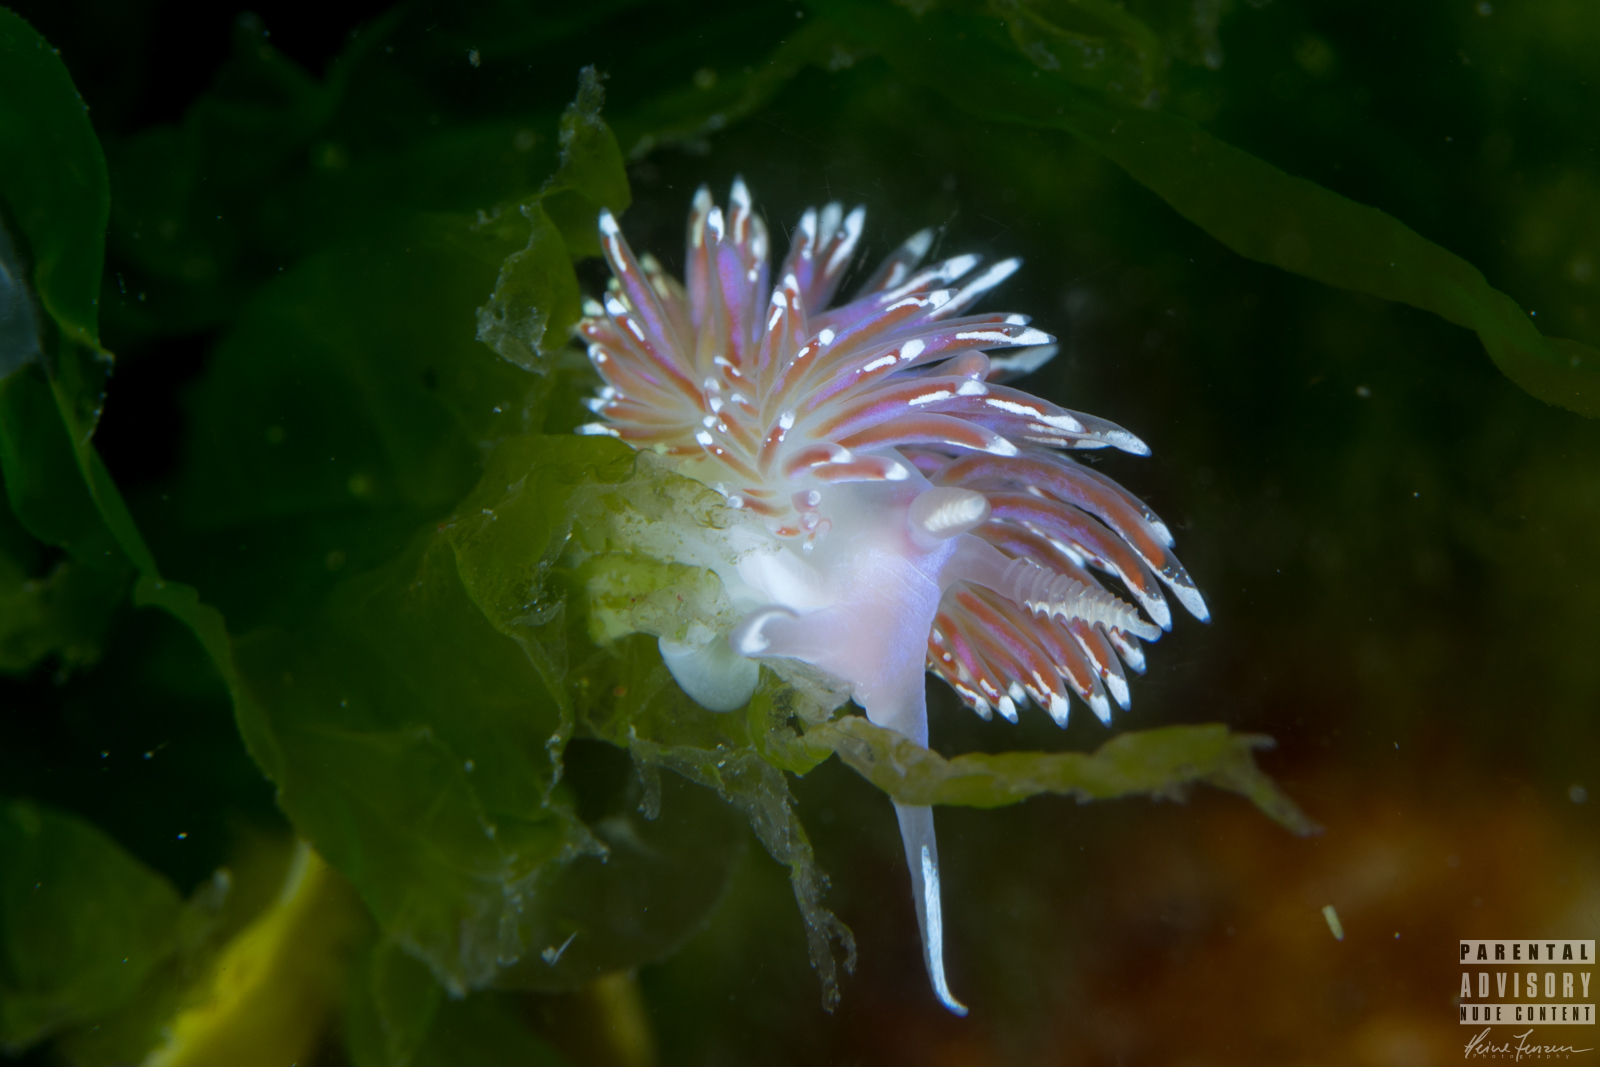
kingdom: Animalia
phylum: Mollusca
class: Gastropoda
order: Nudibranchia
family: Facelinidae
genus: Facelina
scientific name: Facelina bostoniensis
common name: Boston facelina
